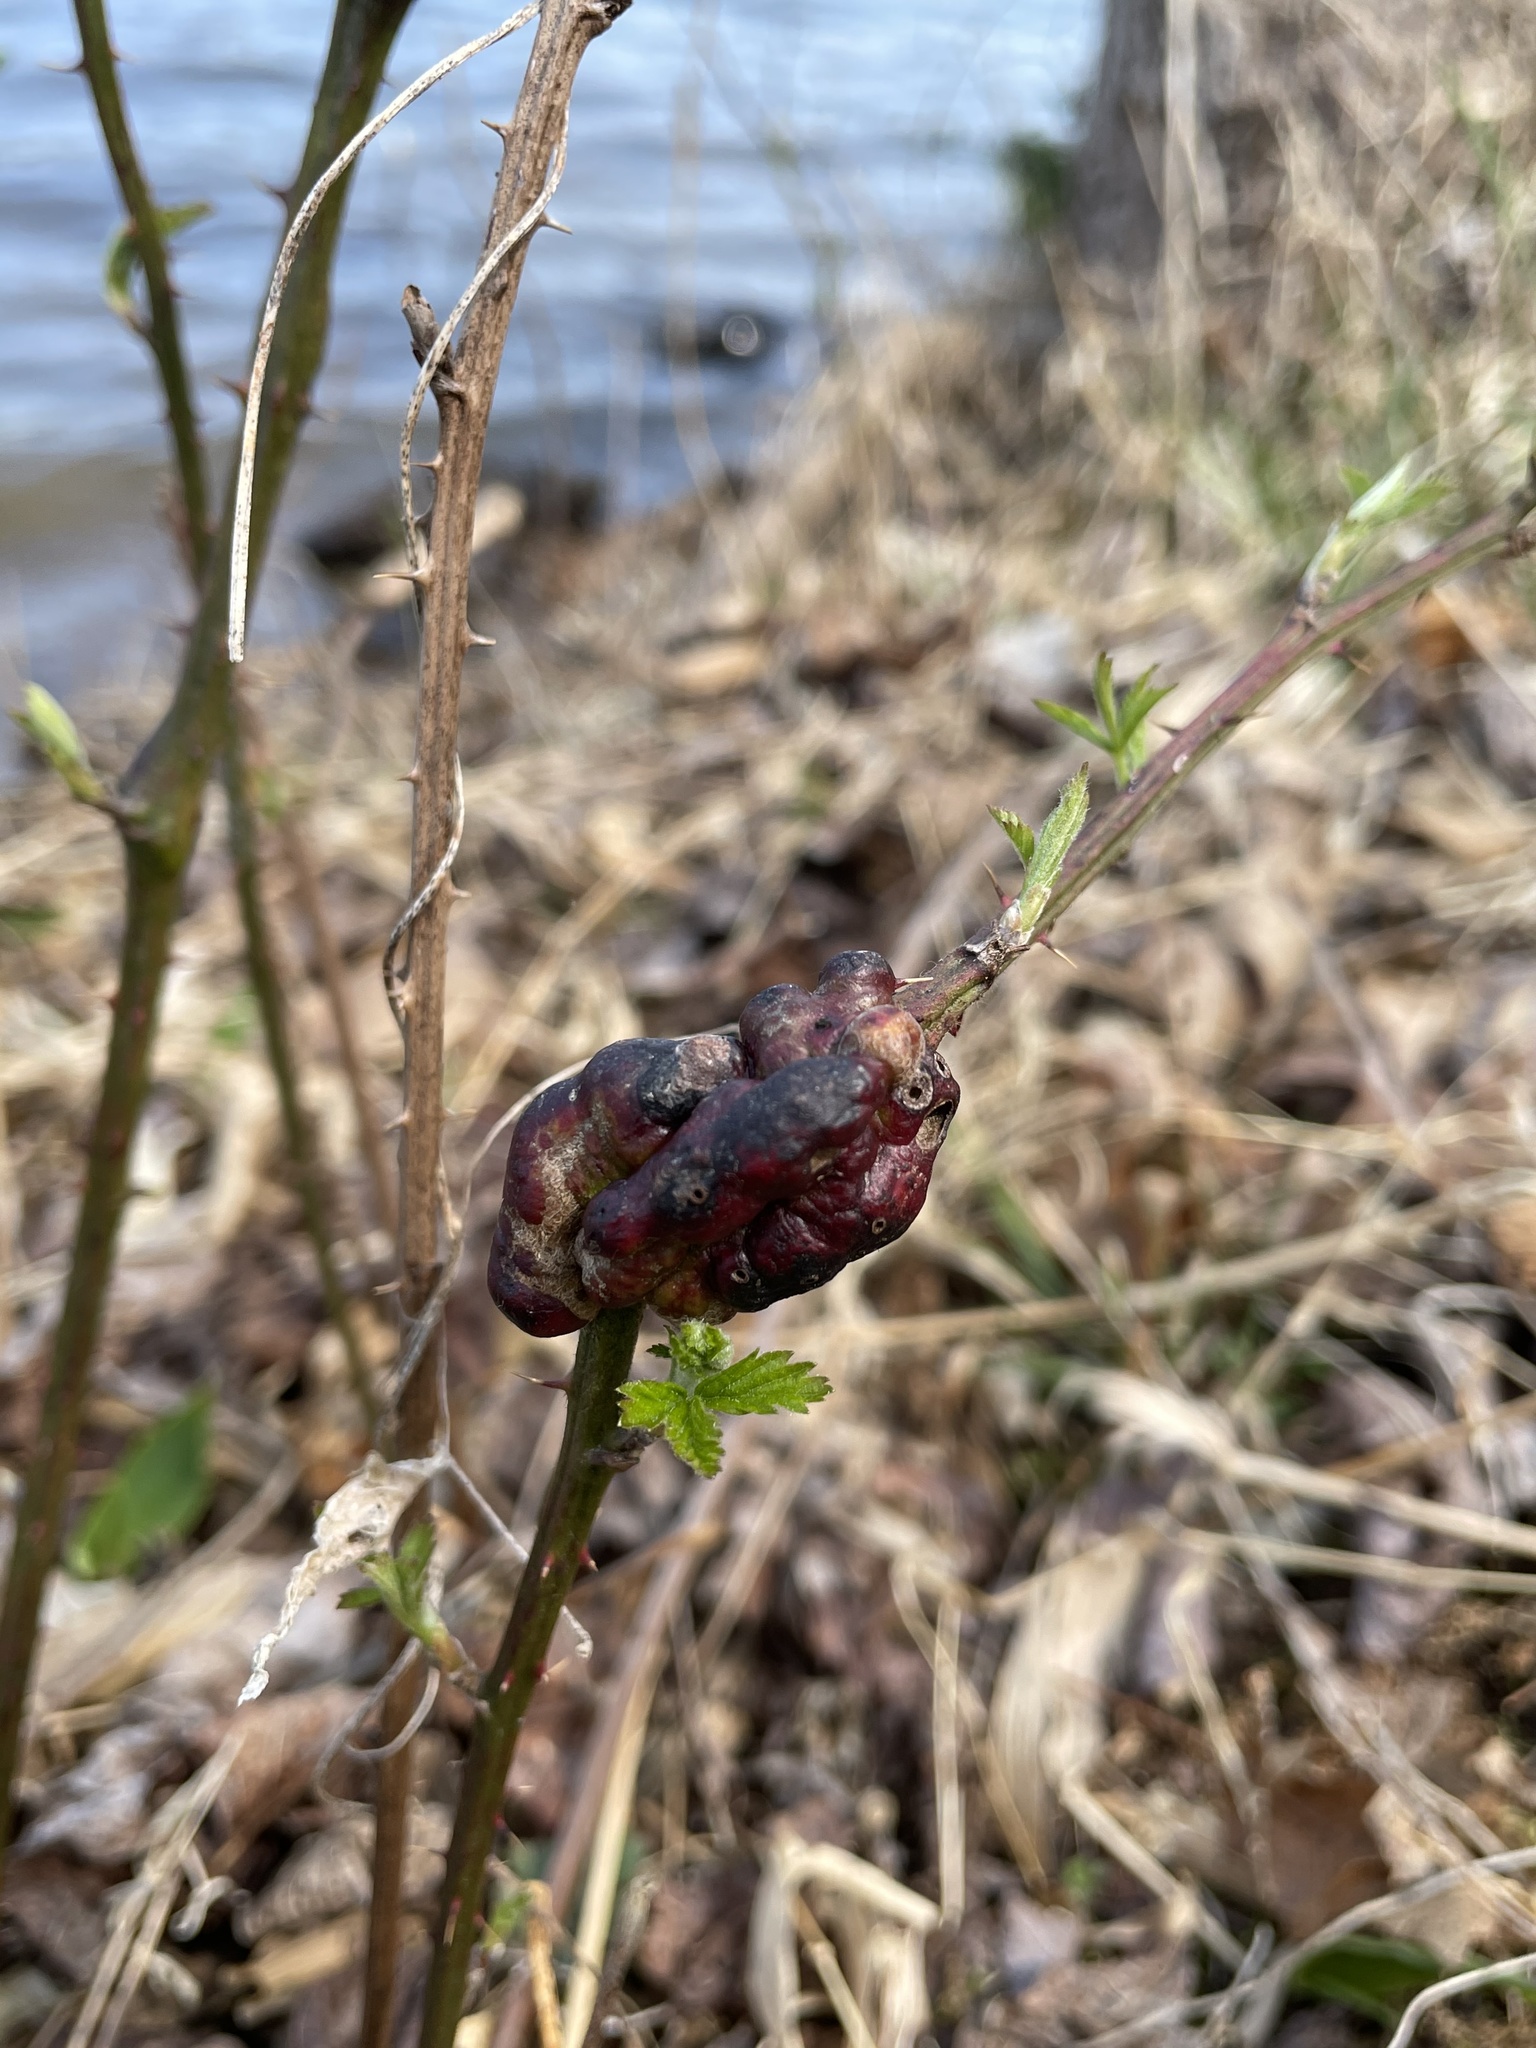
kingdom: Animalia
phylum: Arthropoda
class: Insecta
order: Hymenoptera
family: Cynipidae
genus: Diastrophus
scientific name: Diastrophus
